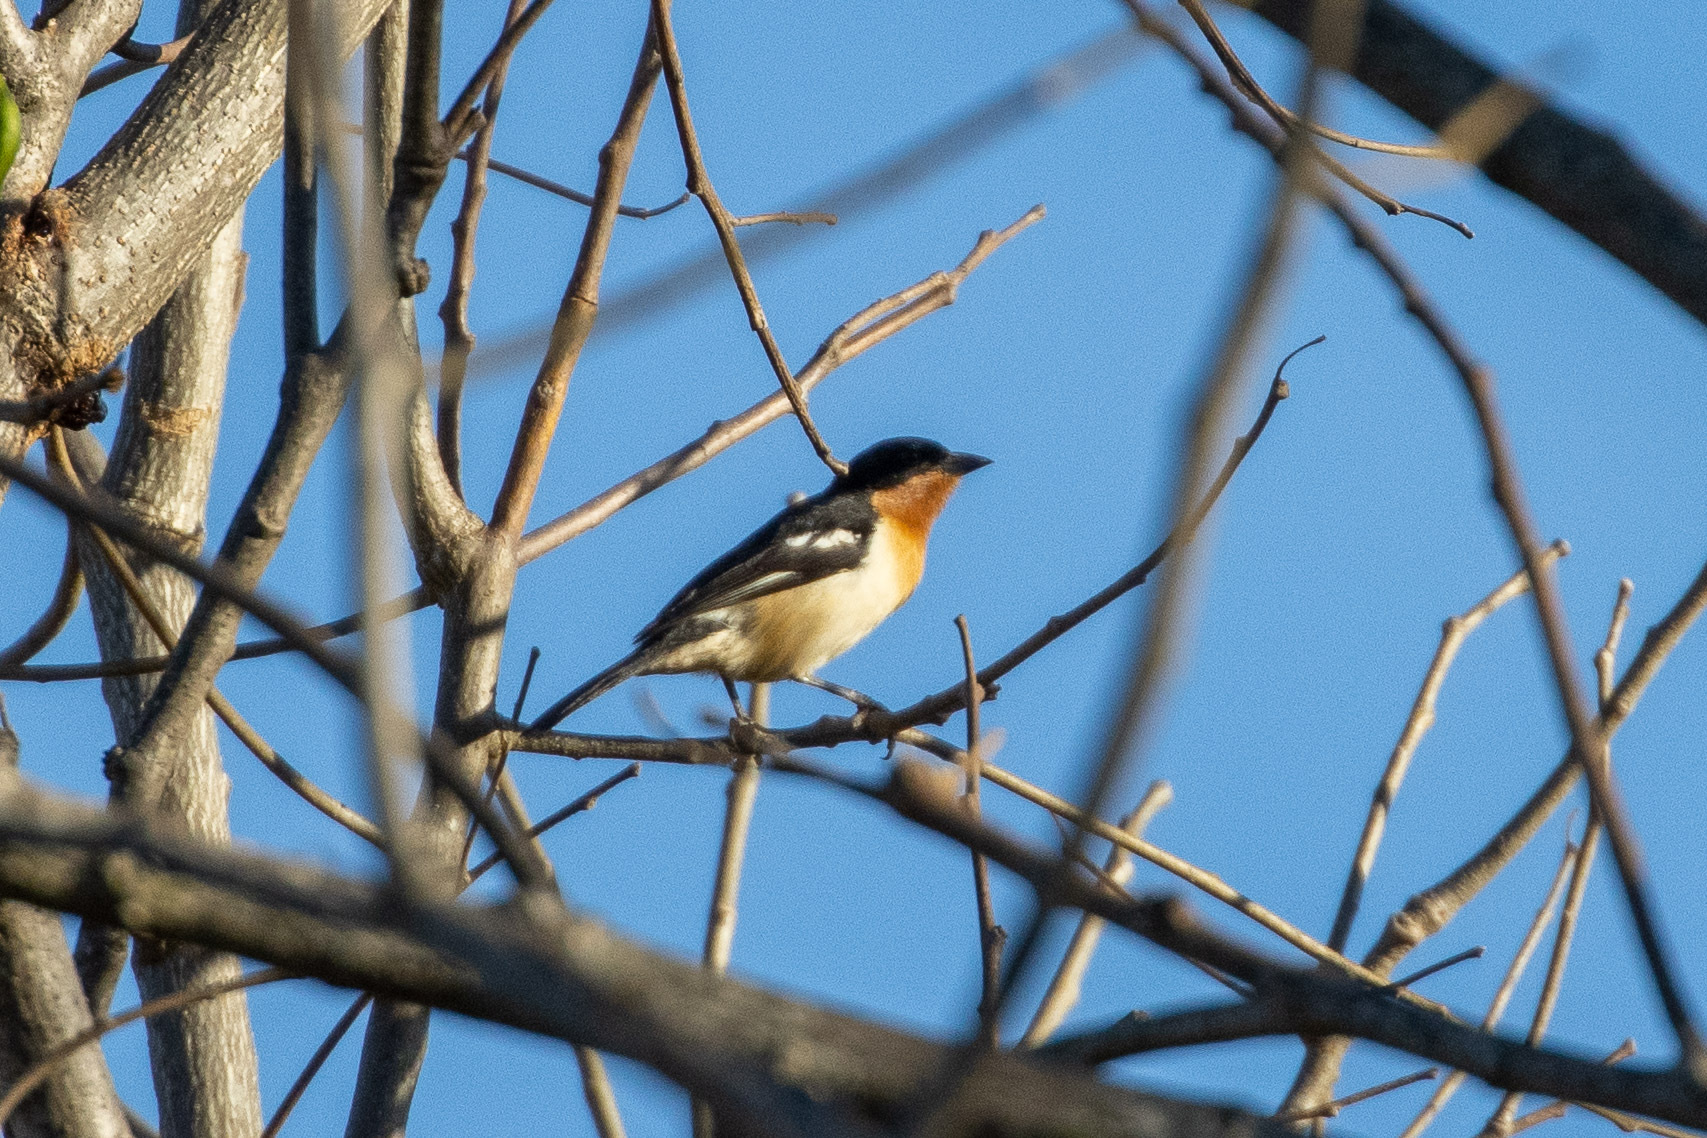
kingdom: Animalia
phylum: Chordata
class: Aves
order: Passeriformes
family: Thraupidae
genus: Cypsnagra
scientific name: Cypsnagra hirundinacea
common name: White-rumped tanager
